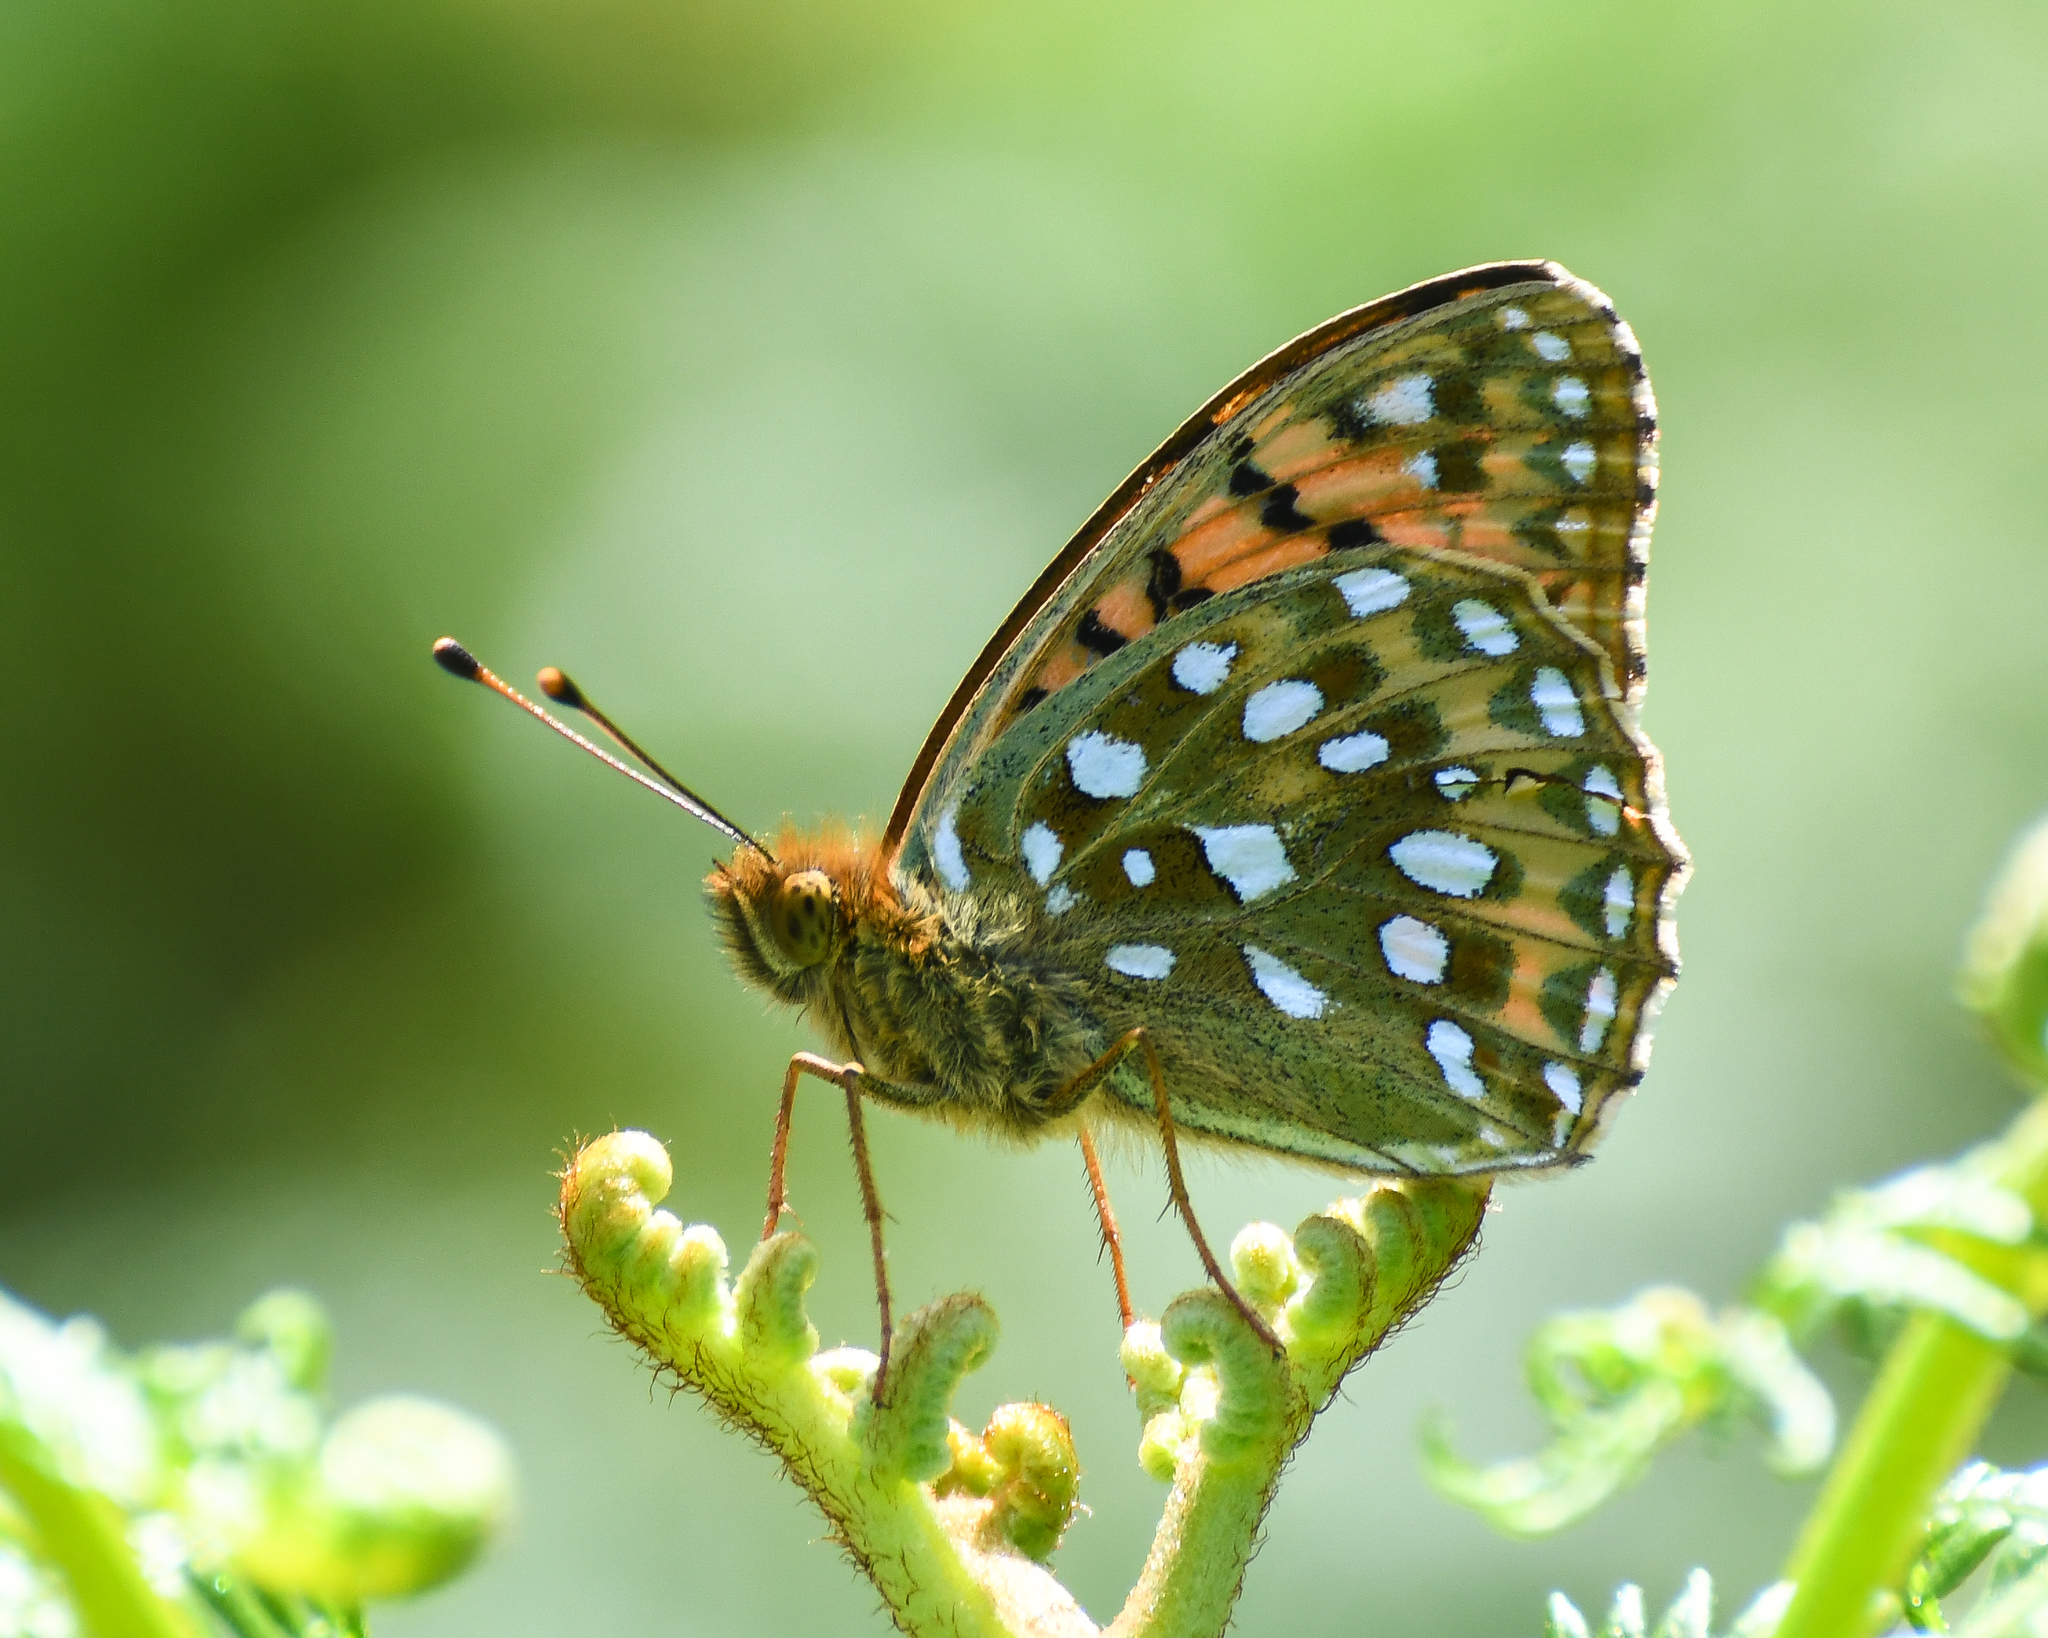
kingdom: Animalia
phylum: Arthropoda
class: Insecta
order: Lepidoptera
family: Nymphalidae
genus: Speyeria
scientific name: Speyeria aglaja
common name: Dark green fritillary
